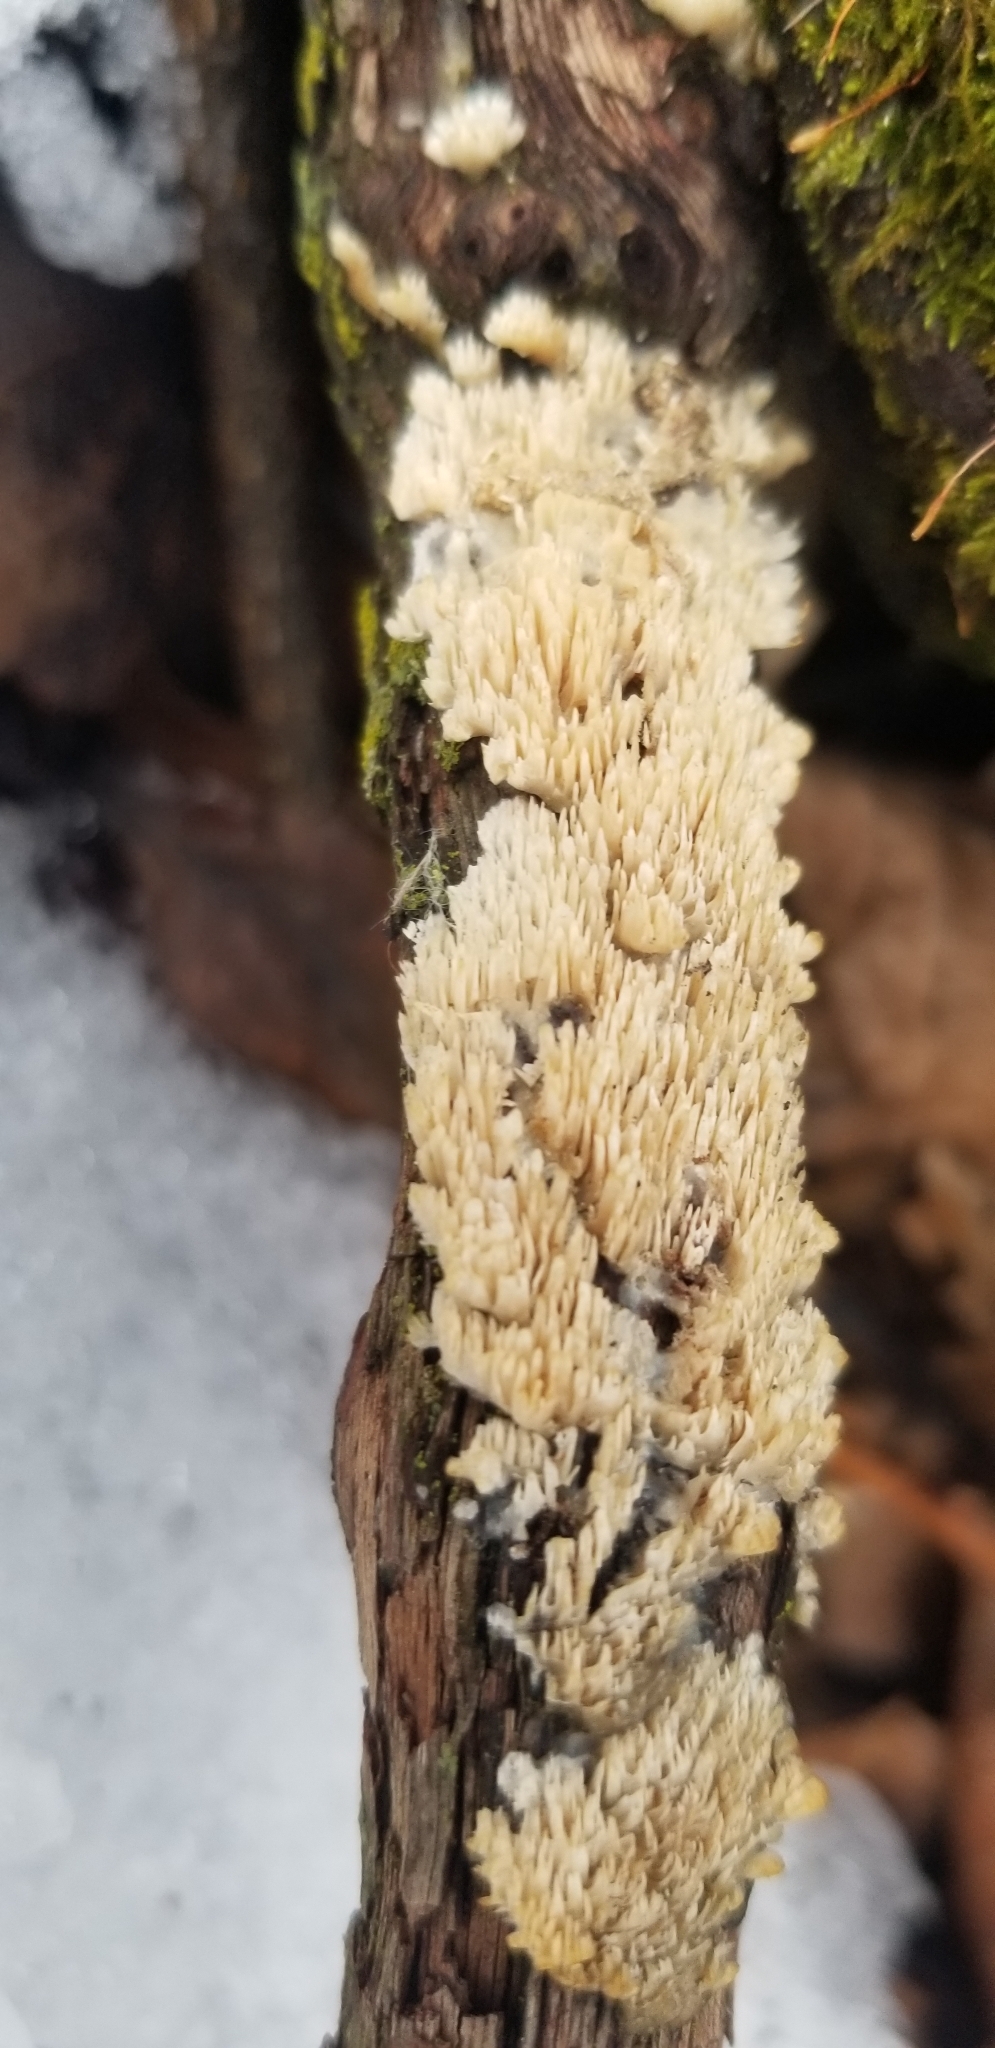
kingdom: Fungi
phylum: Basidiomycota
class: Agaricomycetes
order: Agaricales
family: Radulomycetaceae
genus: Radulomyces
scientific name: Radulomyces copelandii
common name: Asian beauty
